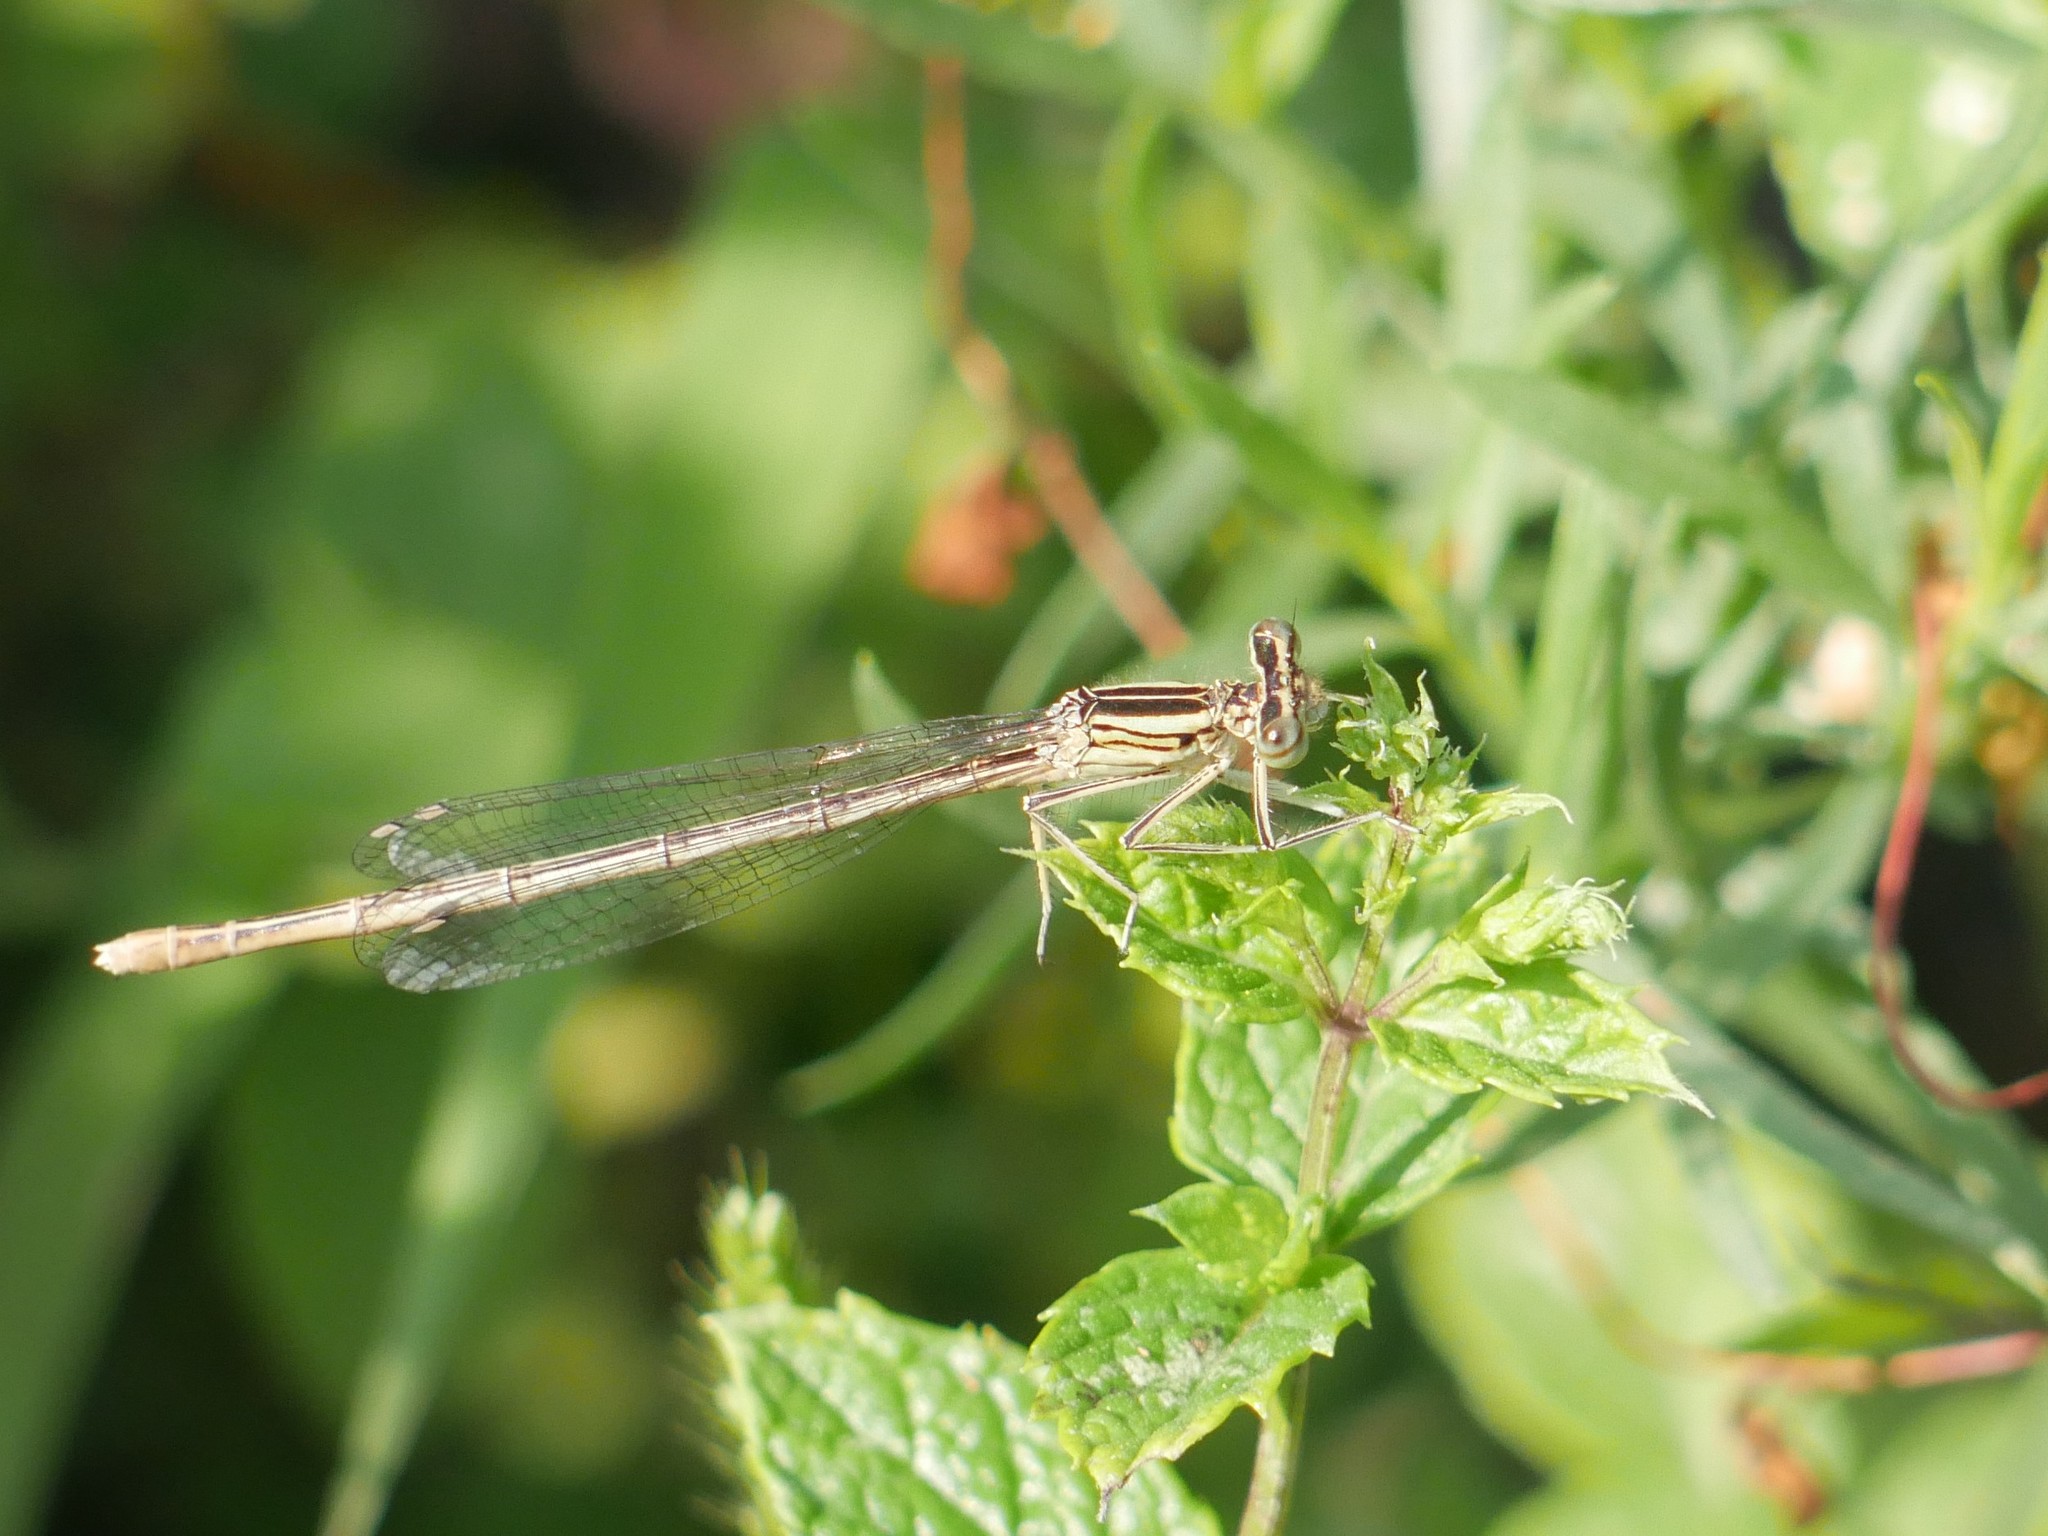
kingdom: Animalia
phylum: Arthropoda
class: Insecta
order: Odonata
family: Platycnemididae
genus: Platycnemis
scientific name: Platycnemis pennipes
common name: White-legged damselfly
